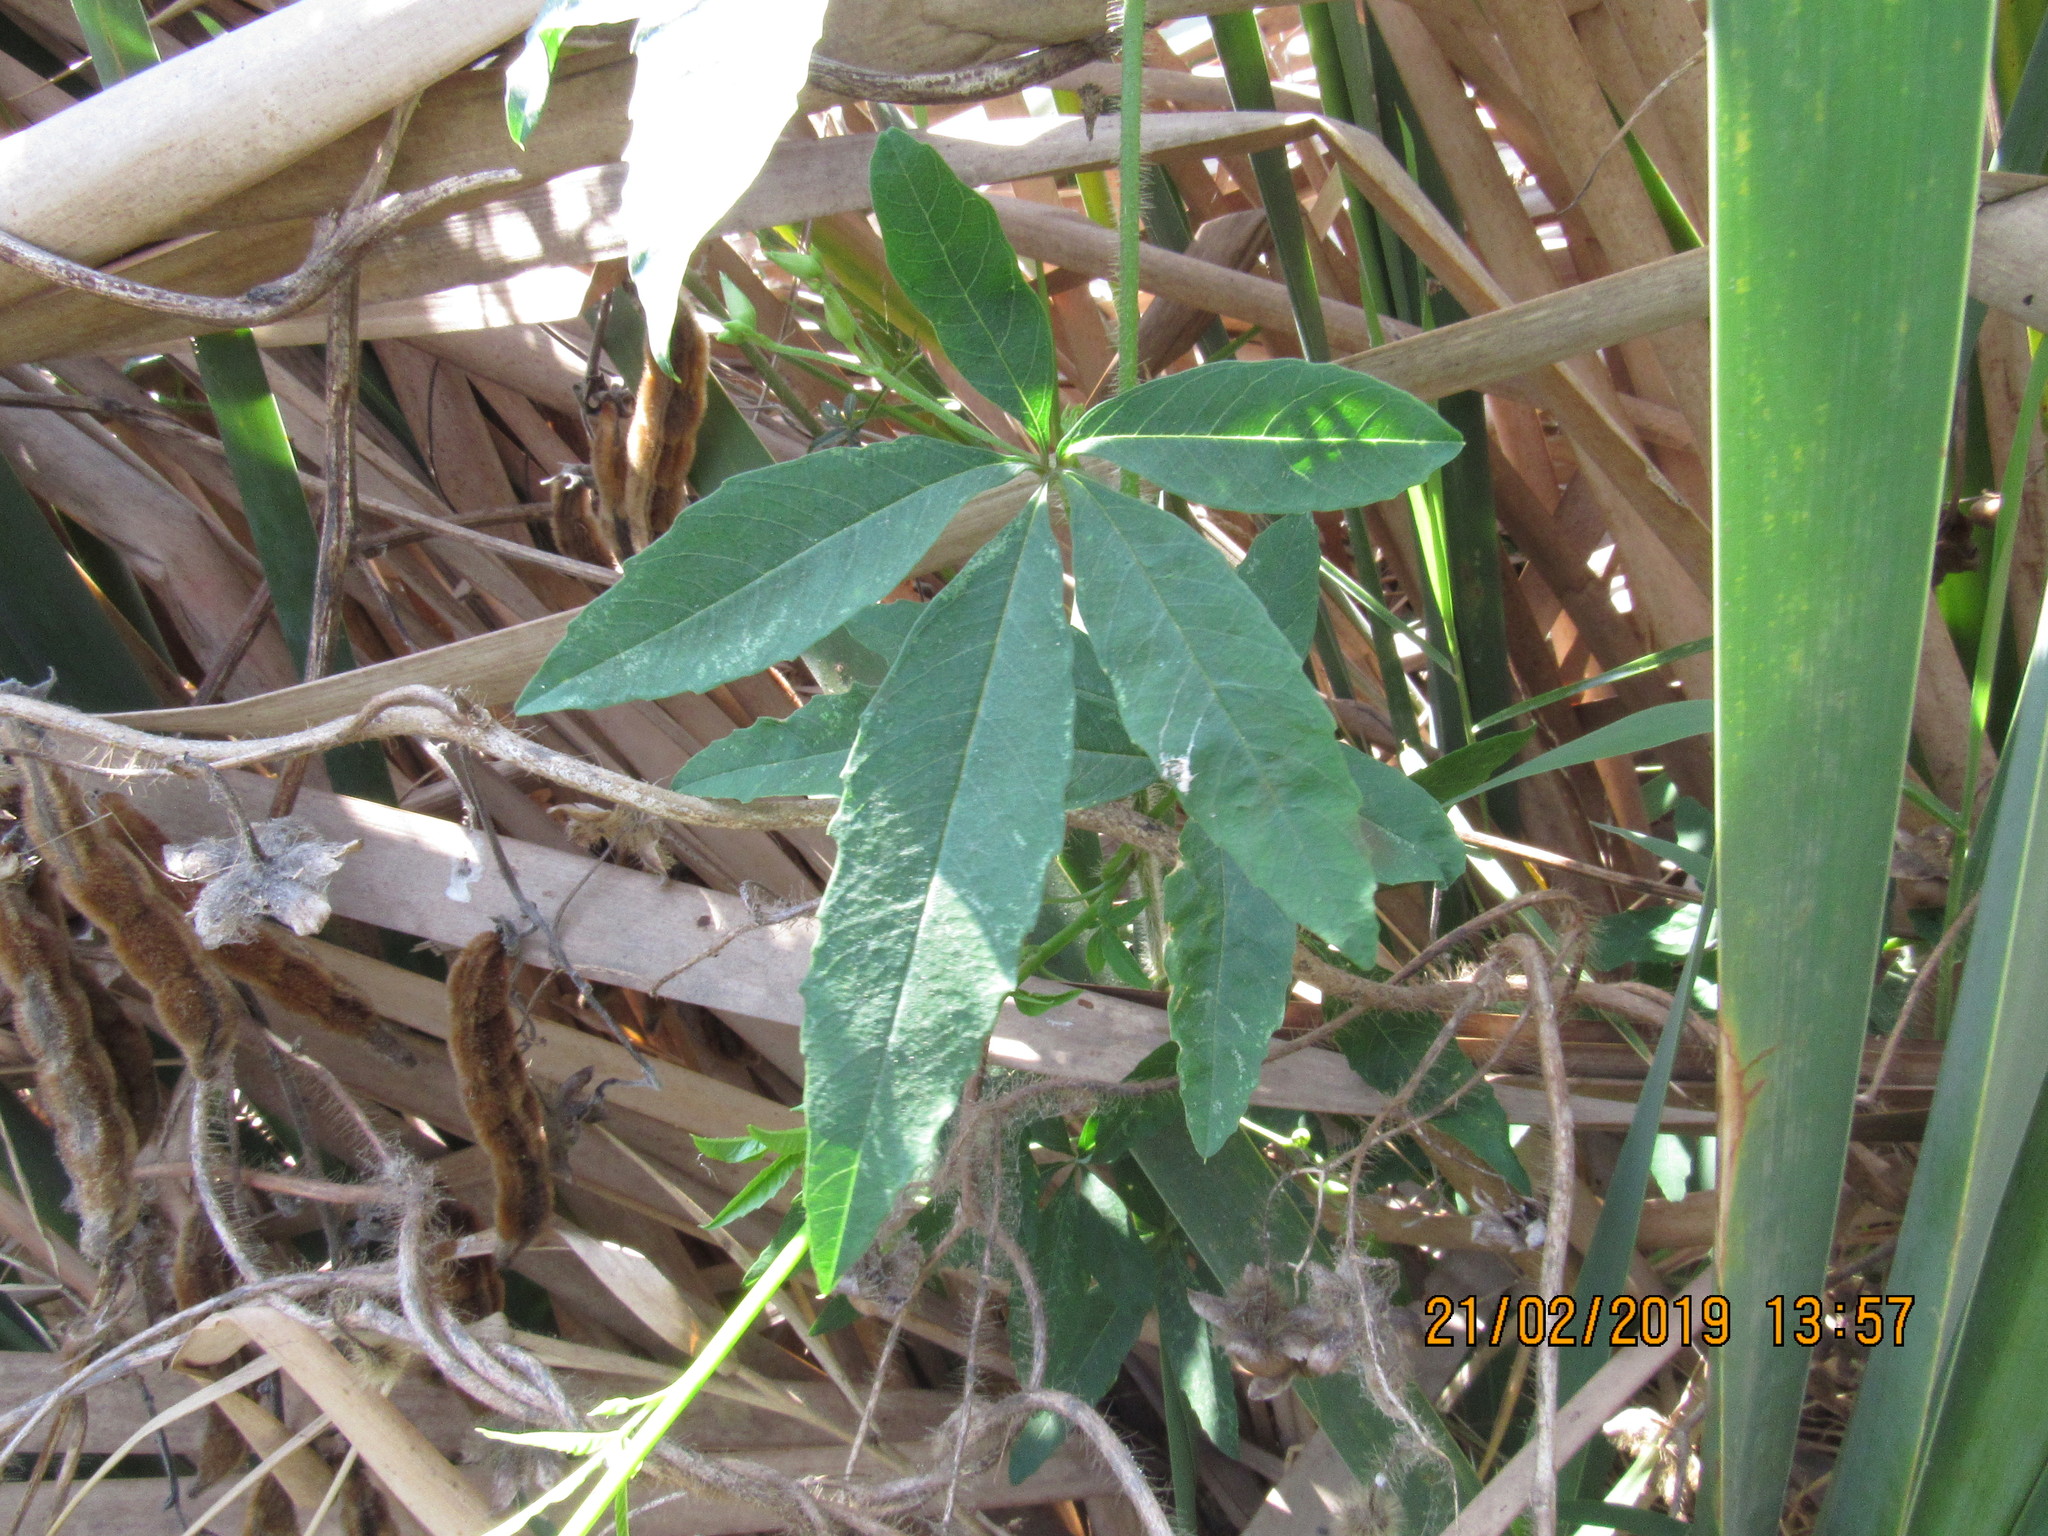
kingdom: Plantae
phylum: Tracheophyta
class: Magnoliopsida
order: Solanales
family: Convolvulaceae
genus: Distimake
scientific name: Distimake aegyptius
